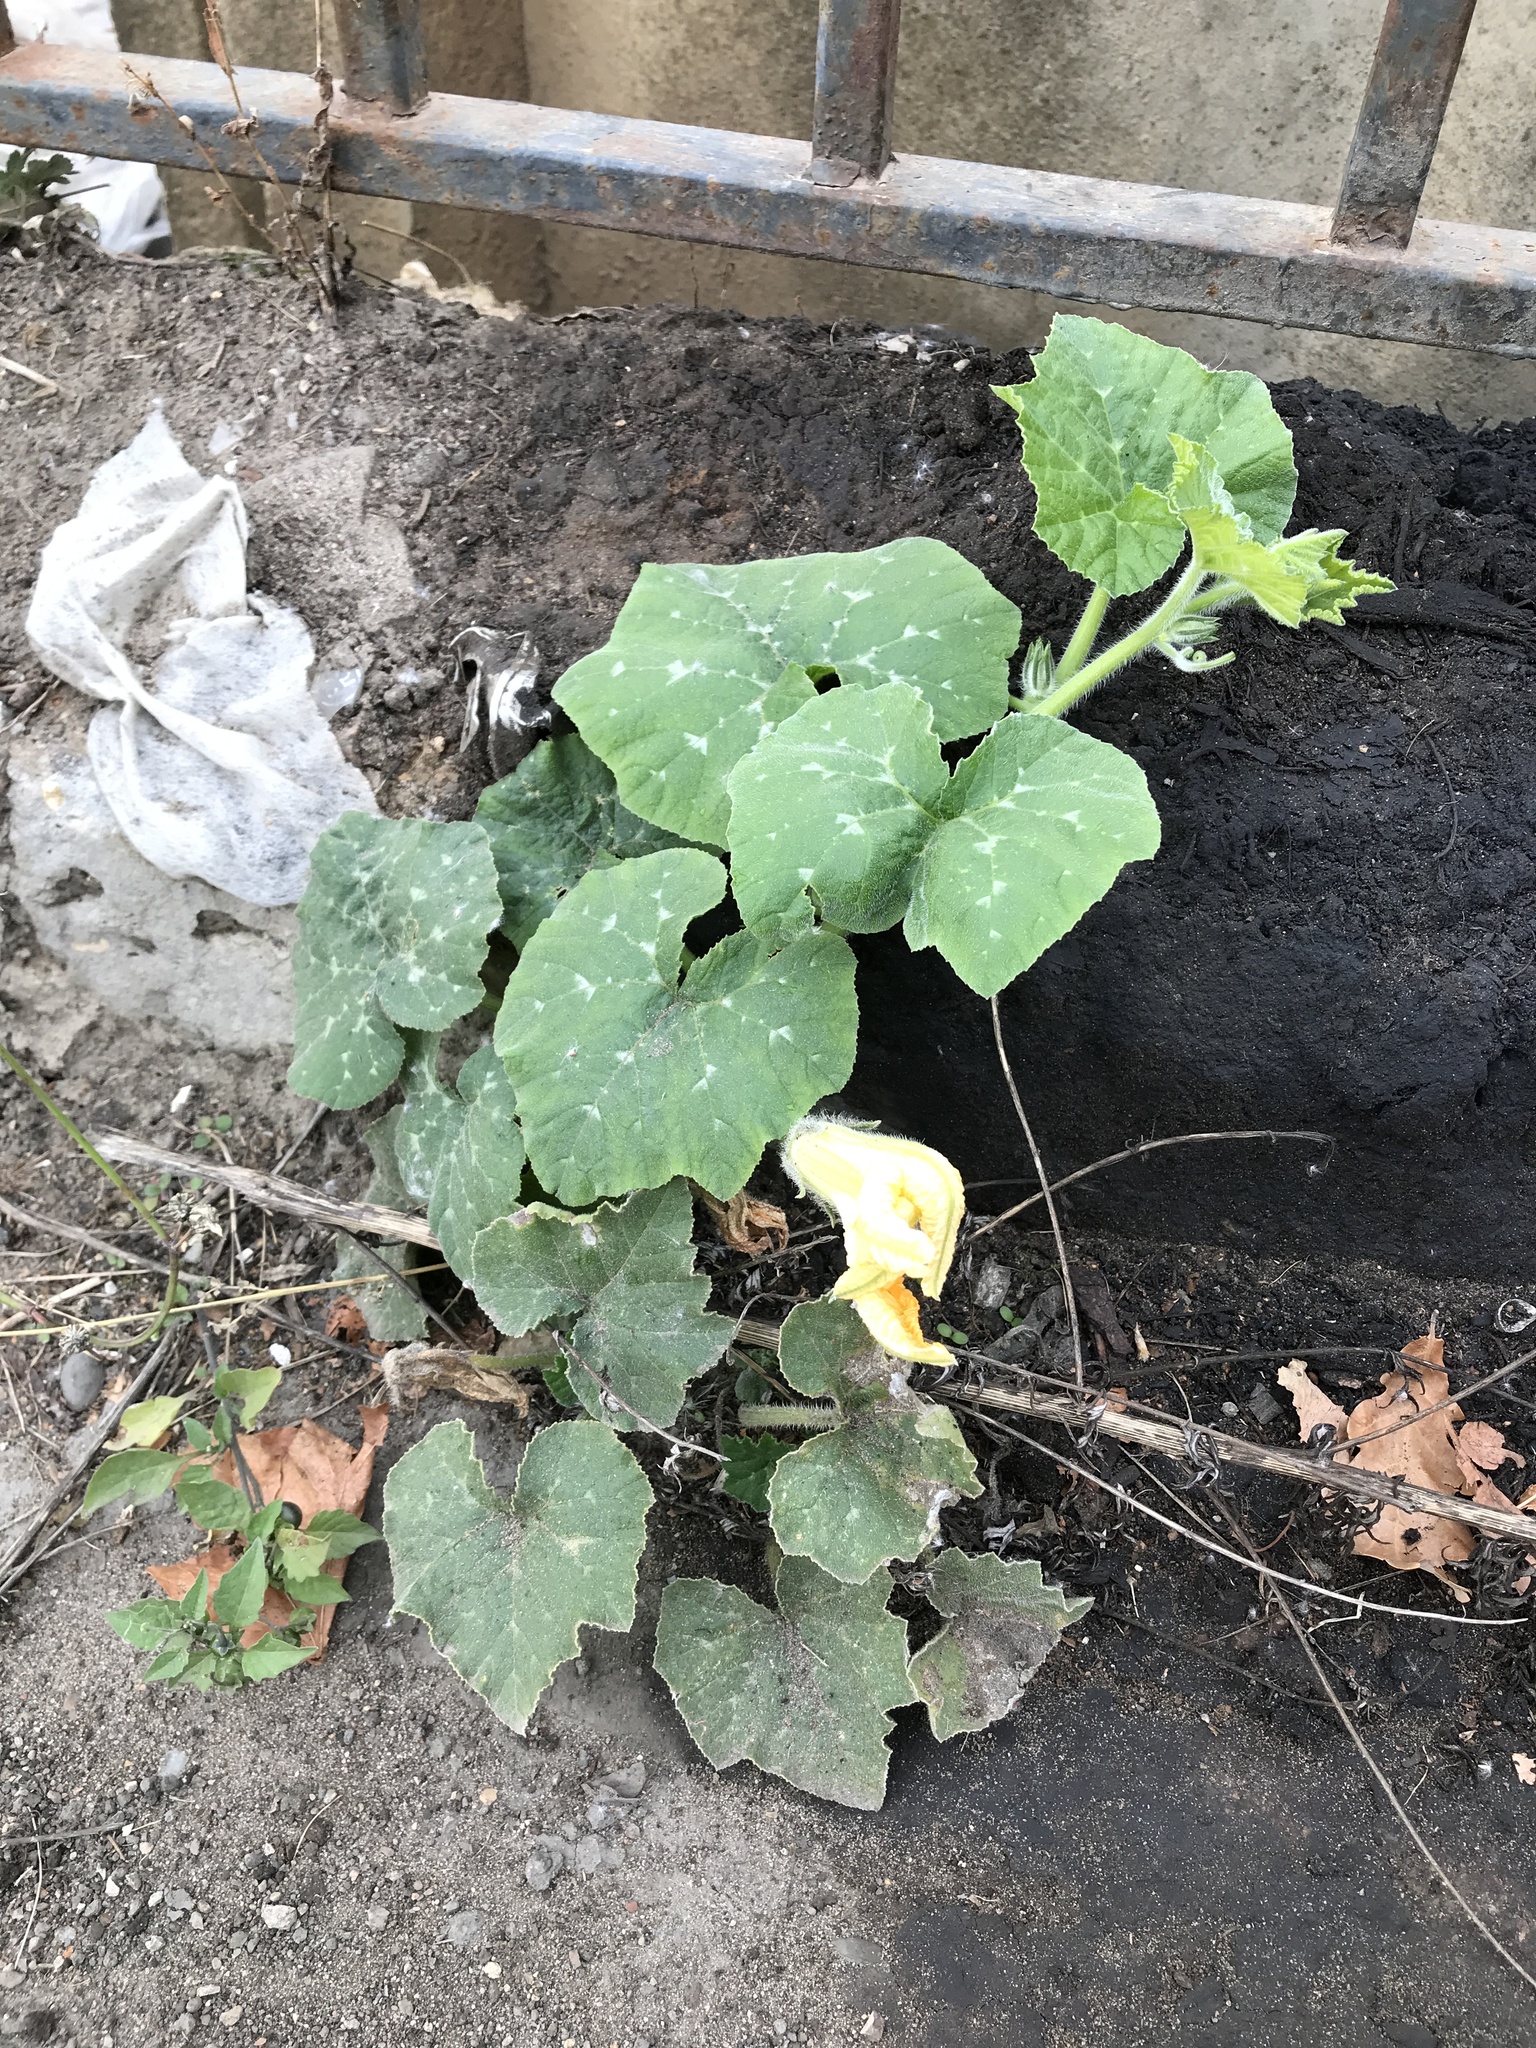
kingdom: Plantae
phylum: Tracheophyta
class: Magnoliopsida
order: Cucurbitales
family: Cucurbitaceae
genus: Cucurbita
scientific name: Cucurbita moschata
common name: Squash / pumpkin
